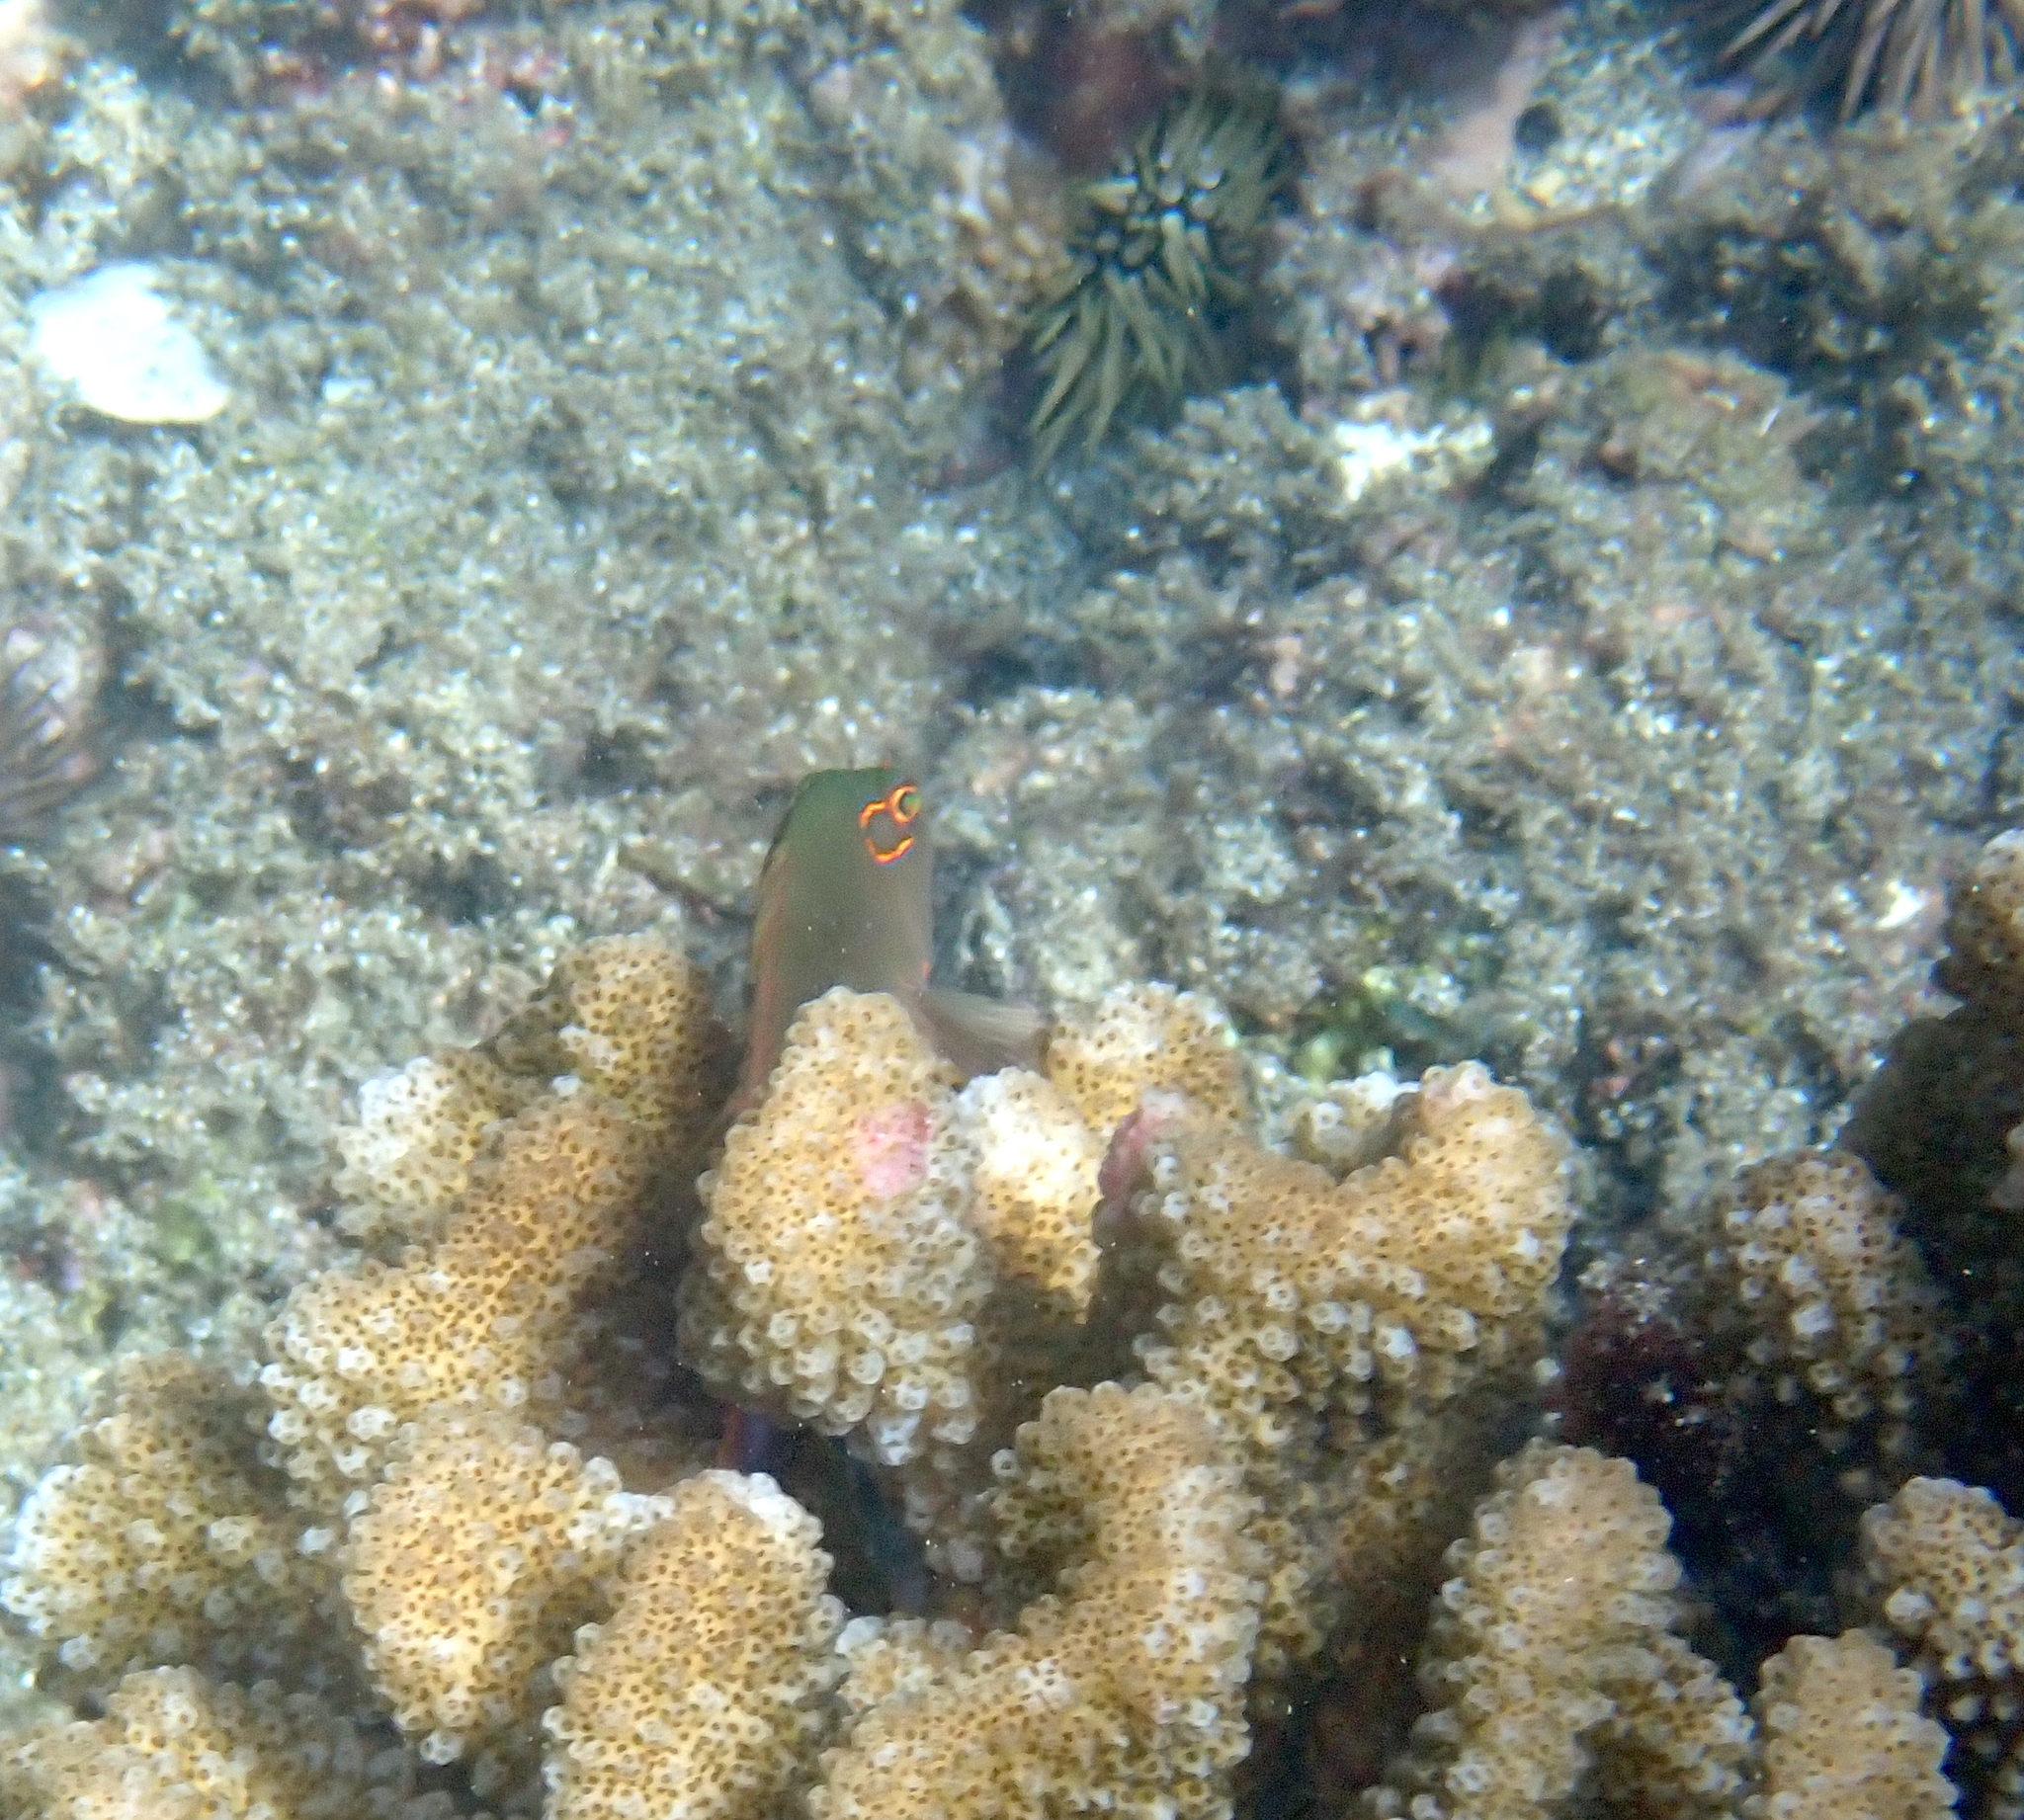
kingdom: Animalia
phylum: Chordata
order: Perciformes
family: Cirrhitidae
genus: Paracirrhites
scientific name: Paracirrhites arcatus
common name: Arc-eye hawkfish
